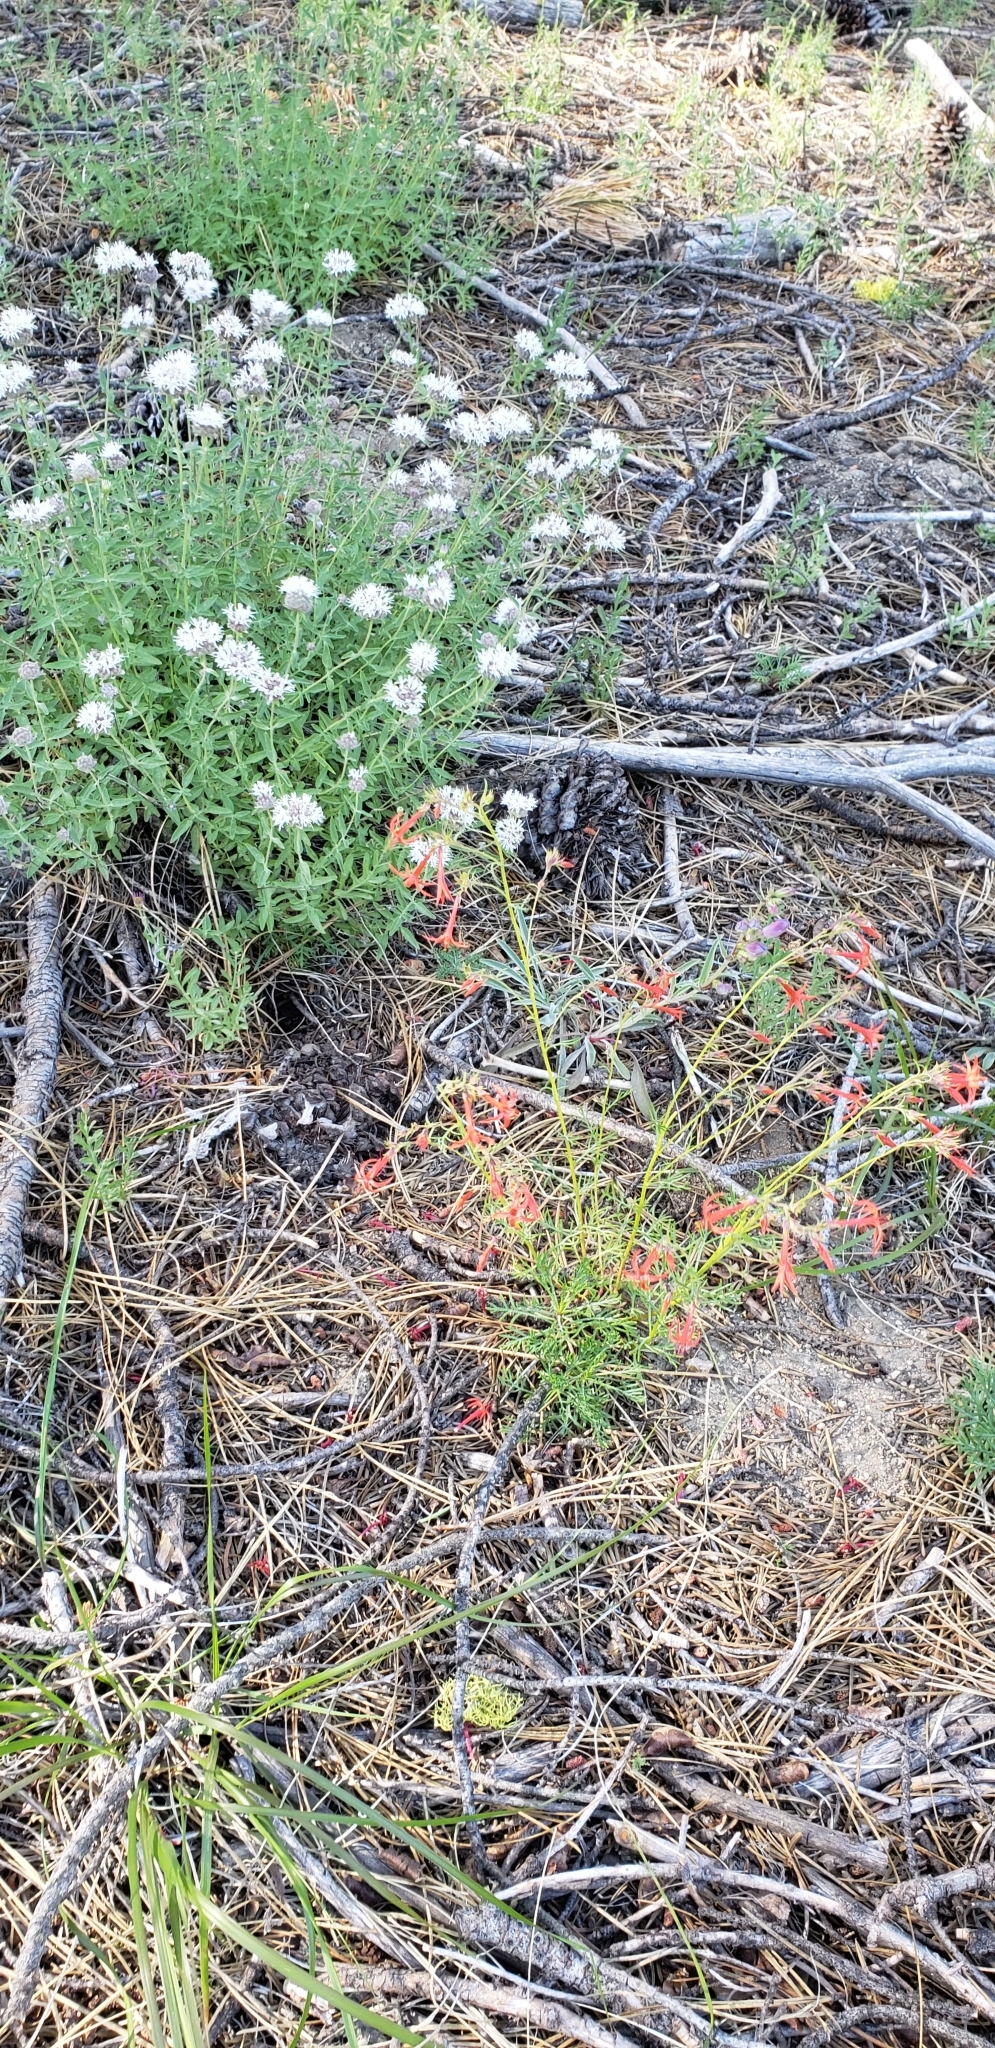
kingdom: Plantae
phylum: Tracheophyta
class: Magnoliopsida
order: Ericales
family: Polemoniaceae
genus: Ipomopsis
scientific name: Ipomopsis aggregata
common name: Scarlet gilia
